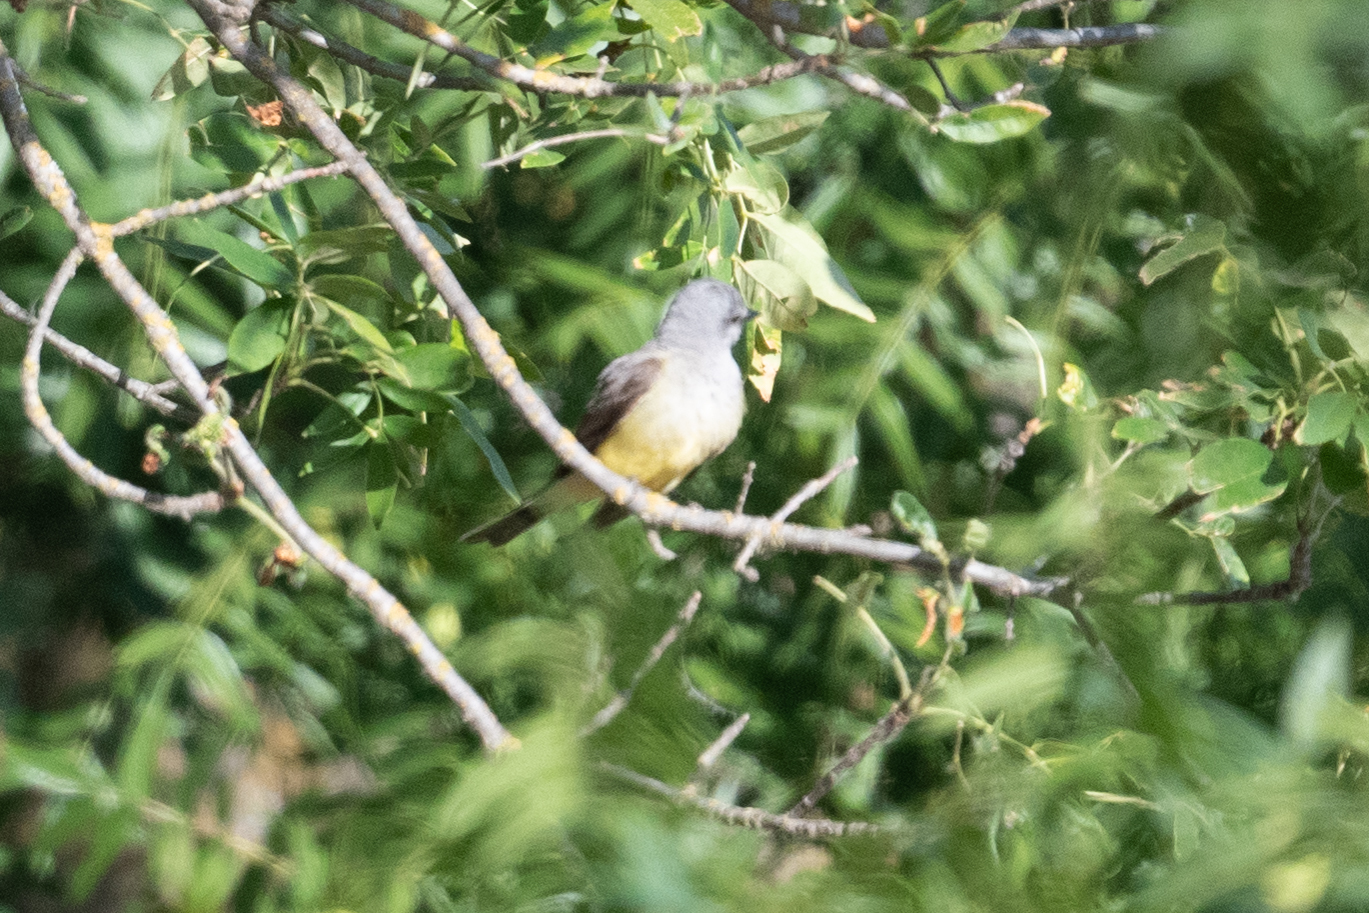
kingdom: Animalia
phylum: Chordata
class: Aves
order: Passeriformes
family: Tyrannidae
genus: Tyrannus
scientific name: Tyrannus verticalis
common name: Western kingbird
